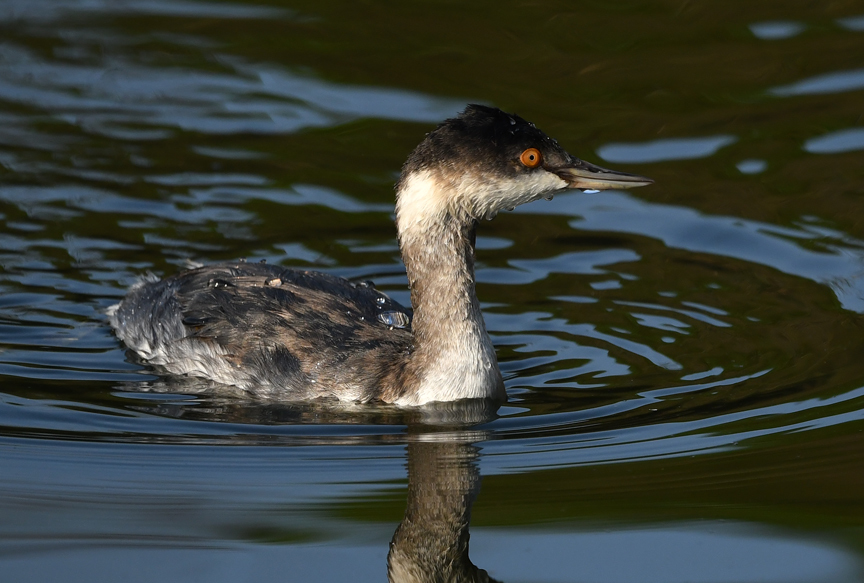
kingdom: Animalia
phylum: Chordata
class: Aves
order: Podicipediformes
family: Podicipedidae
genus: Podiceps
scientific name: Podiceps nigricollis
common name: Black-necked grebe
